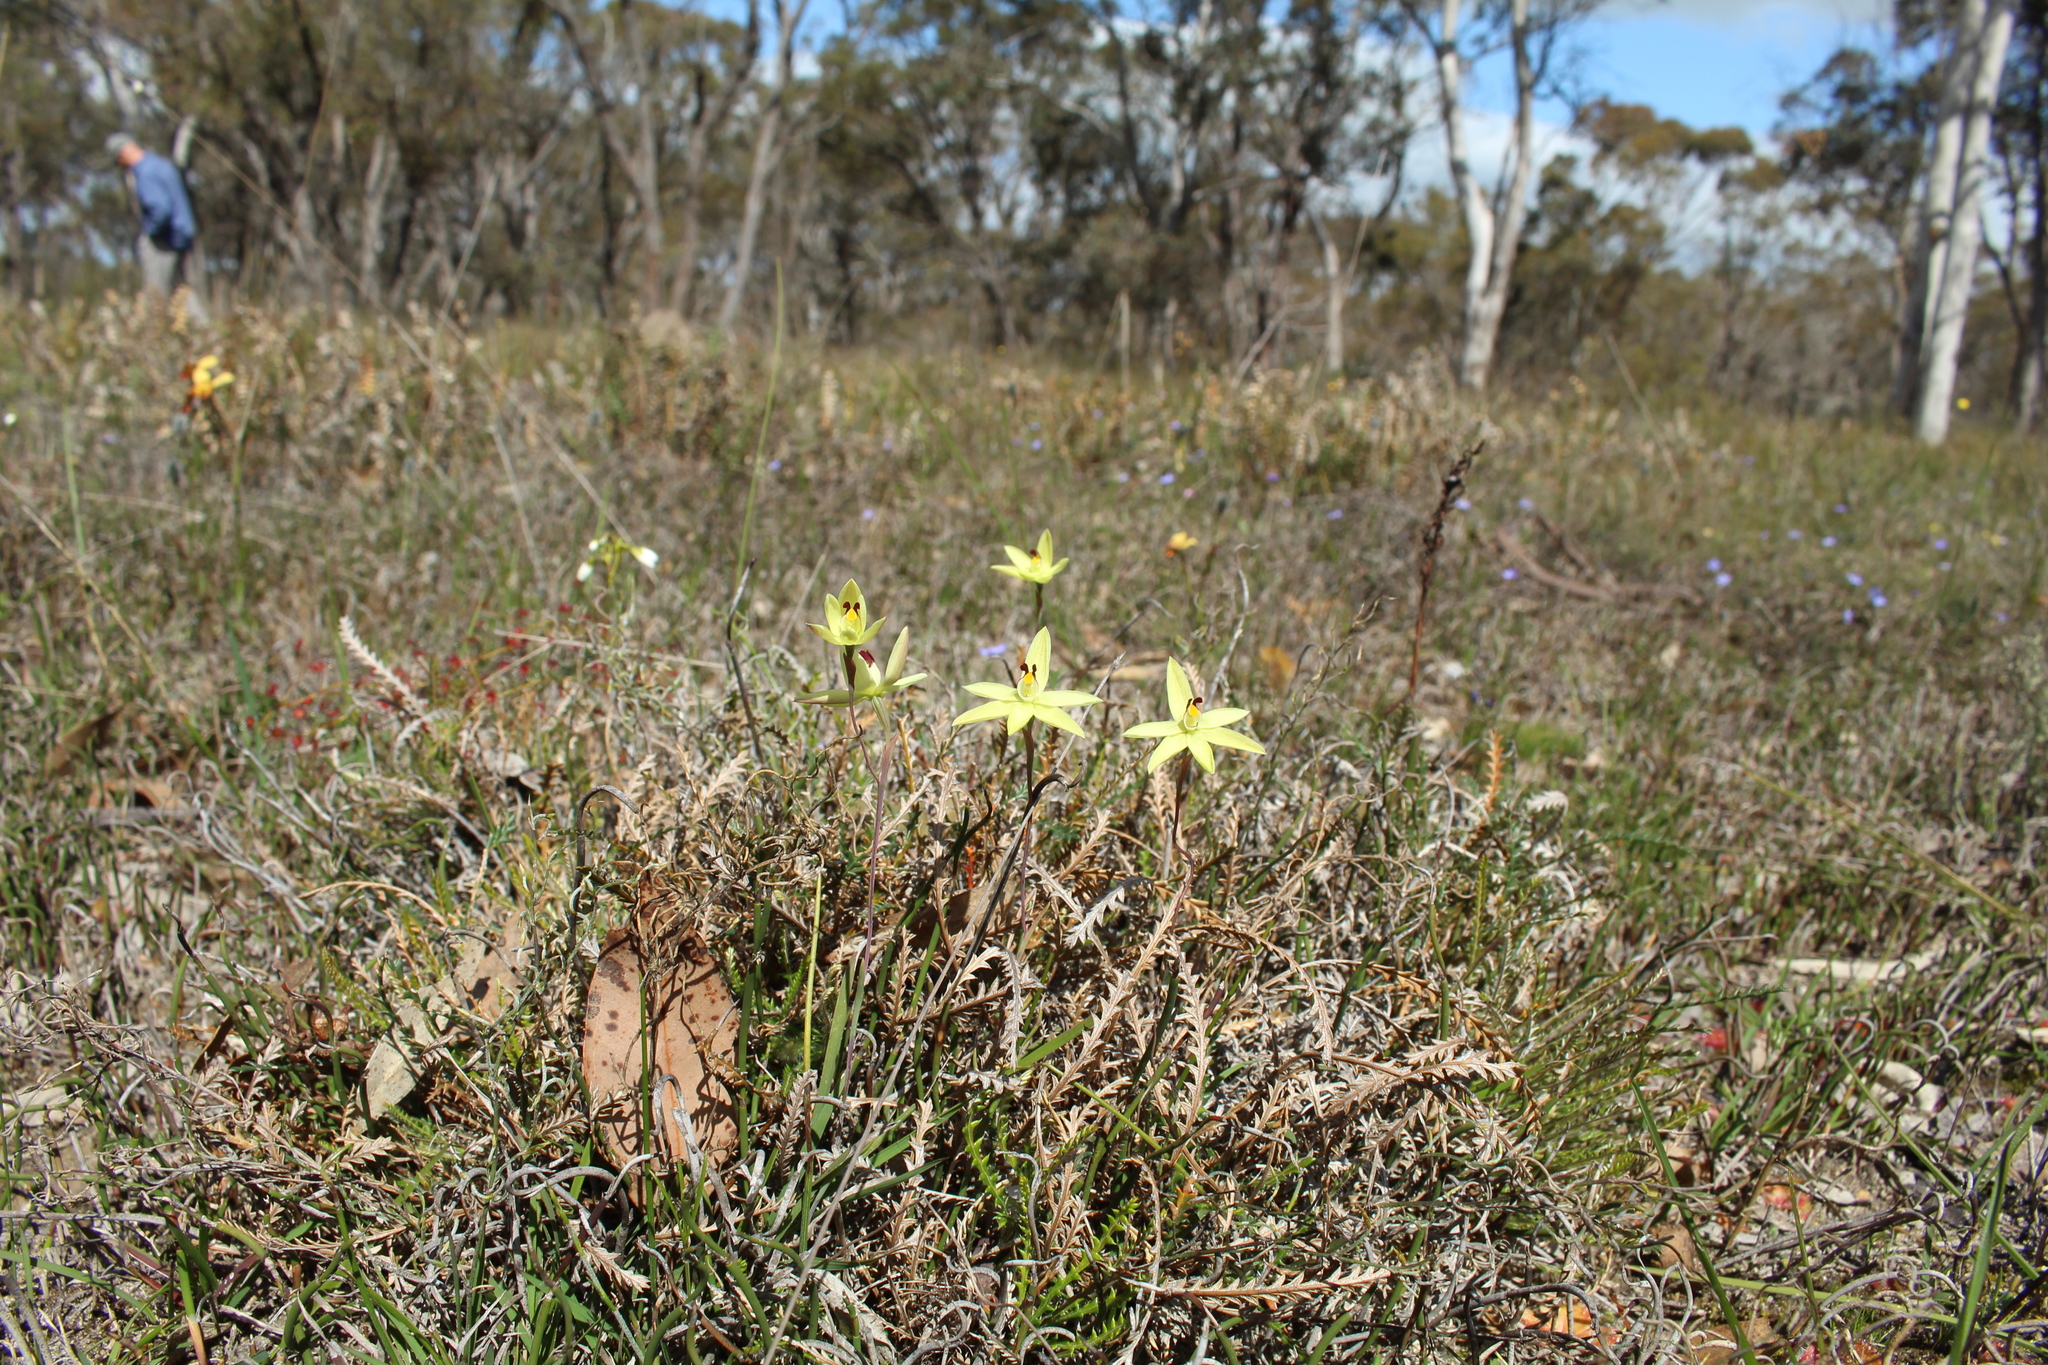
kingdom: Plantae
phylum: Tracheophyta
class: Liliopsida
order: Asparagales
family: Orchidaceae
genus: Thelymitra
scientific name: Thelymitra antennifera
